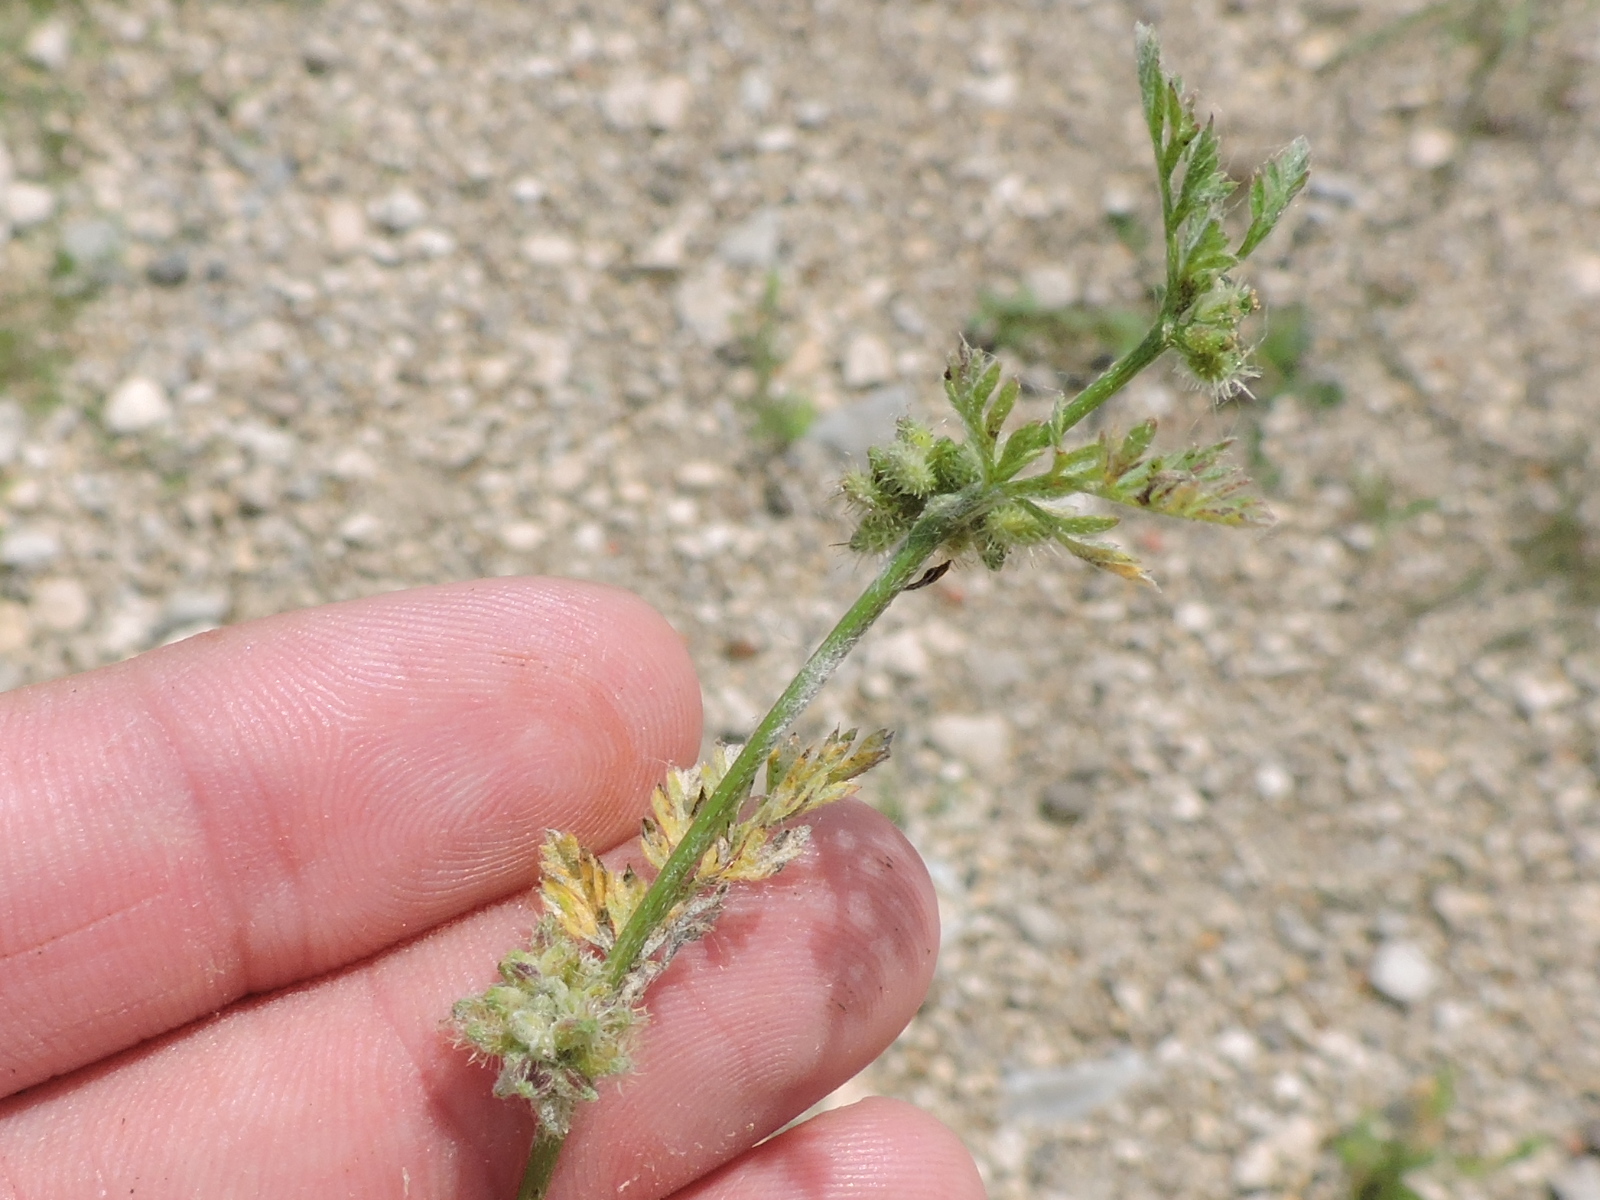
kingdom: Plantae
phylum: Tracheophyta
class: Magnoliopsida
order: Apiales
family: Apiaceae
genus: Torilis
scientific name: Torilis nodosa
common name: Knotted hedge-parsley
